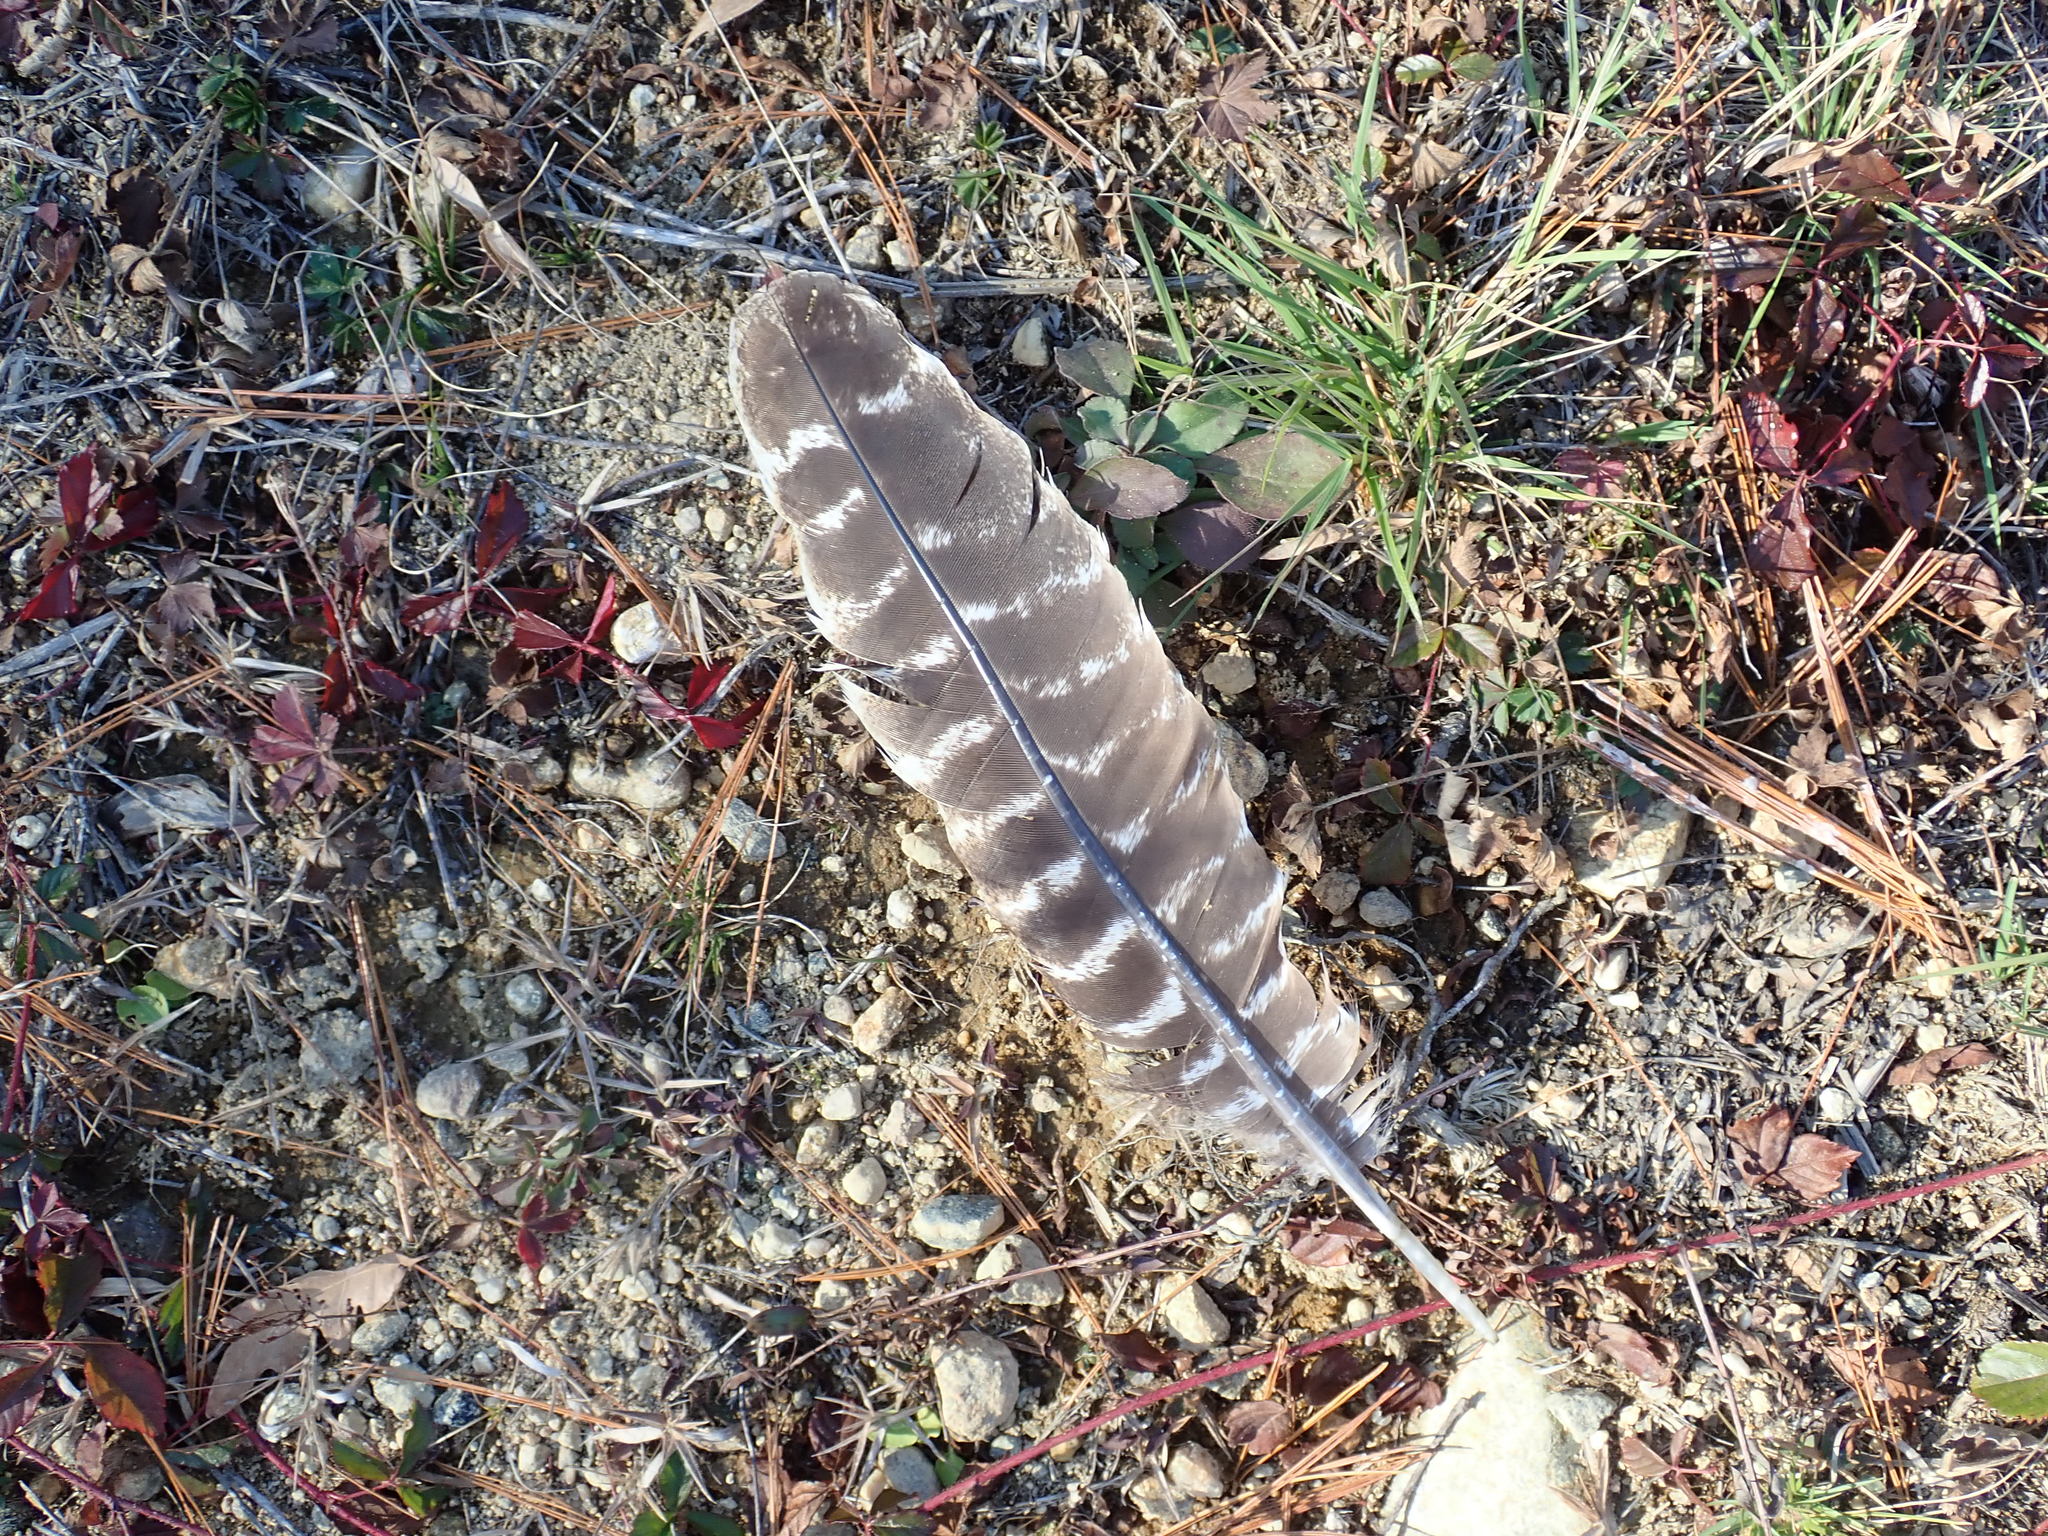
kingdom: Animalia
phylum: Chordata
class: Aves
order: Galliformes
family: Phasianidae
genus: Meleagris
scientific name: Meleagris gallopavo
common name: Wild turkey
